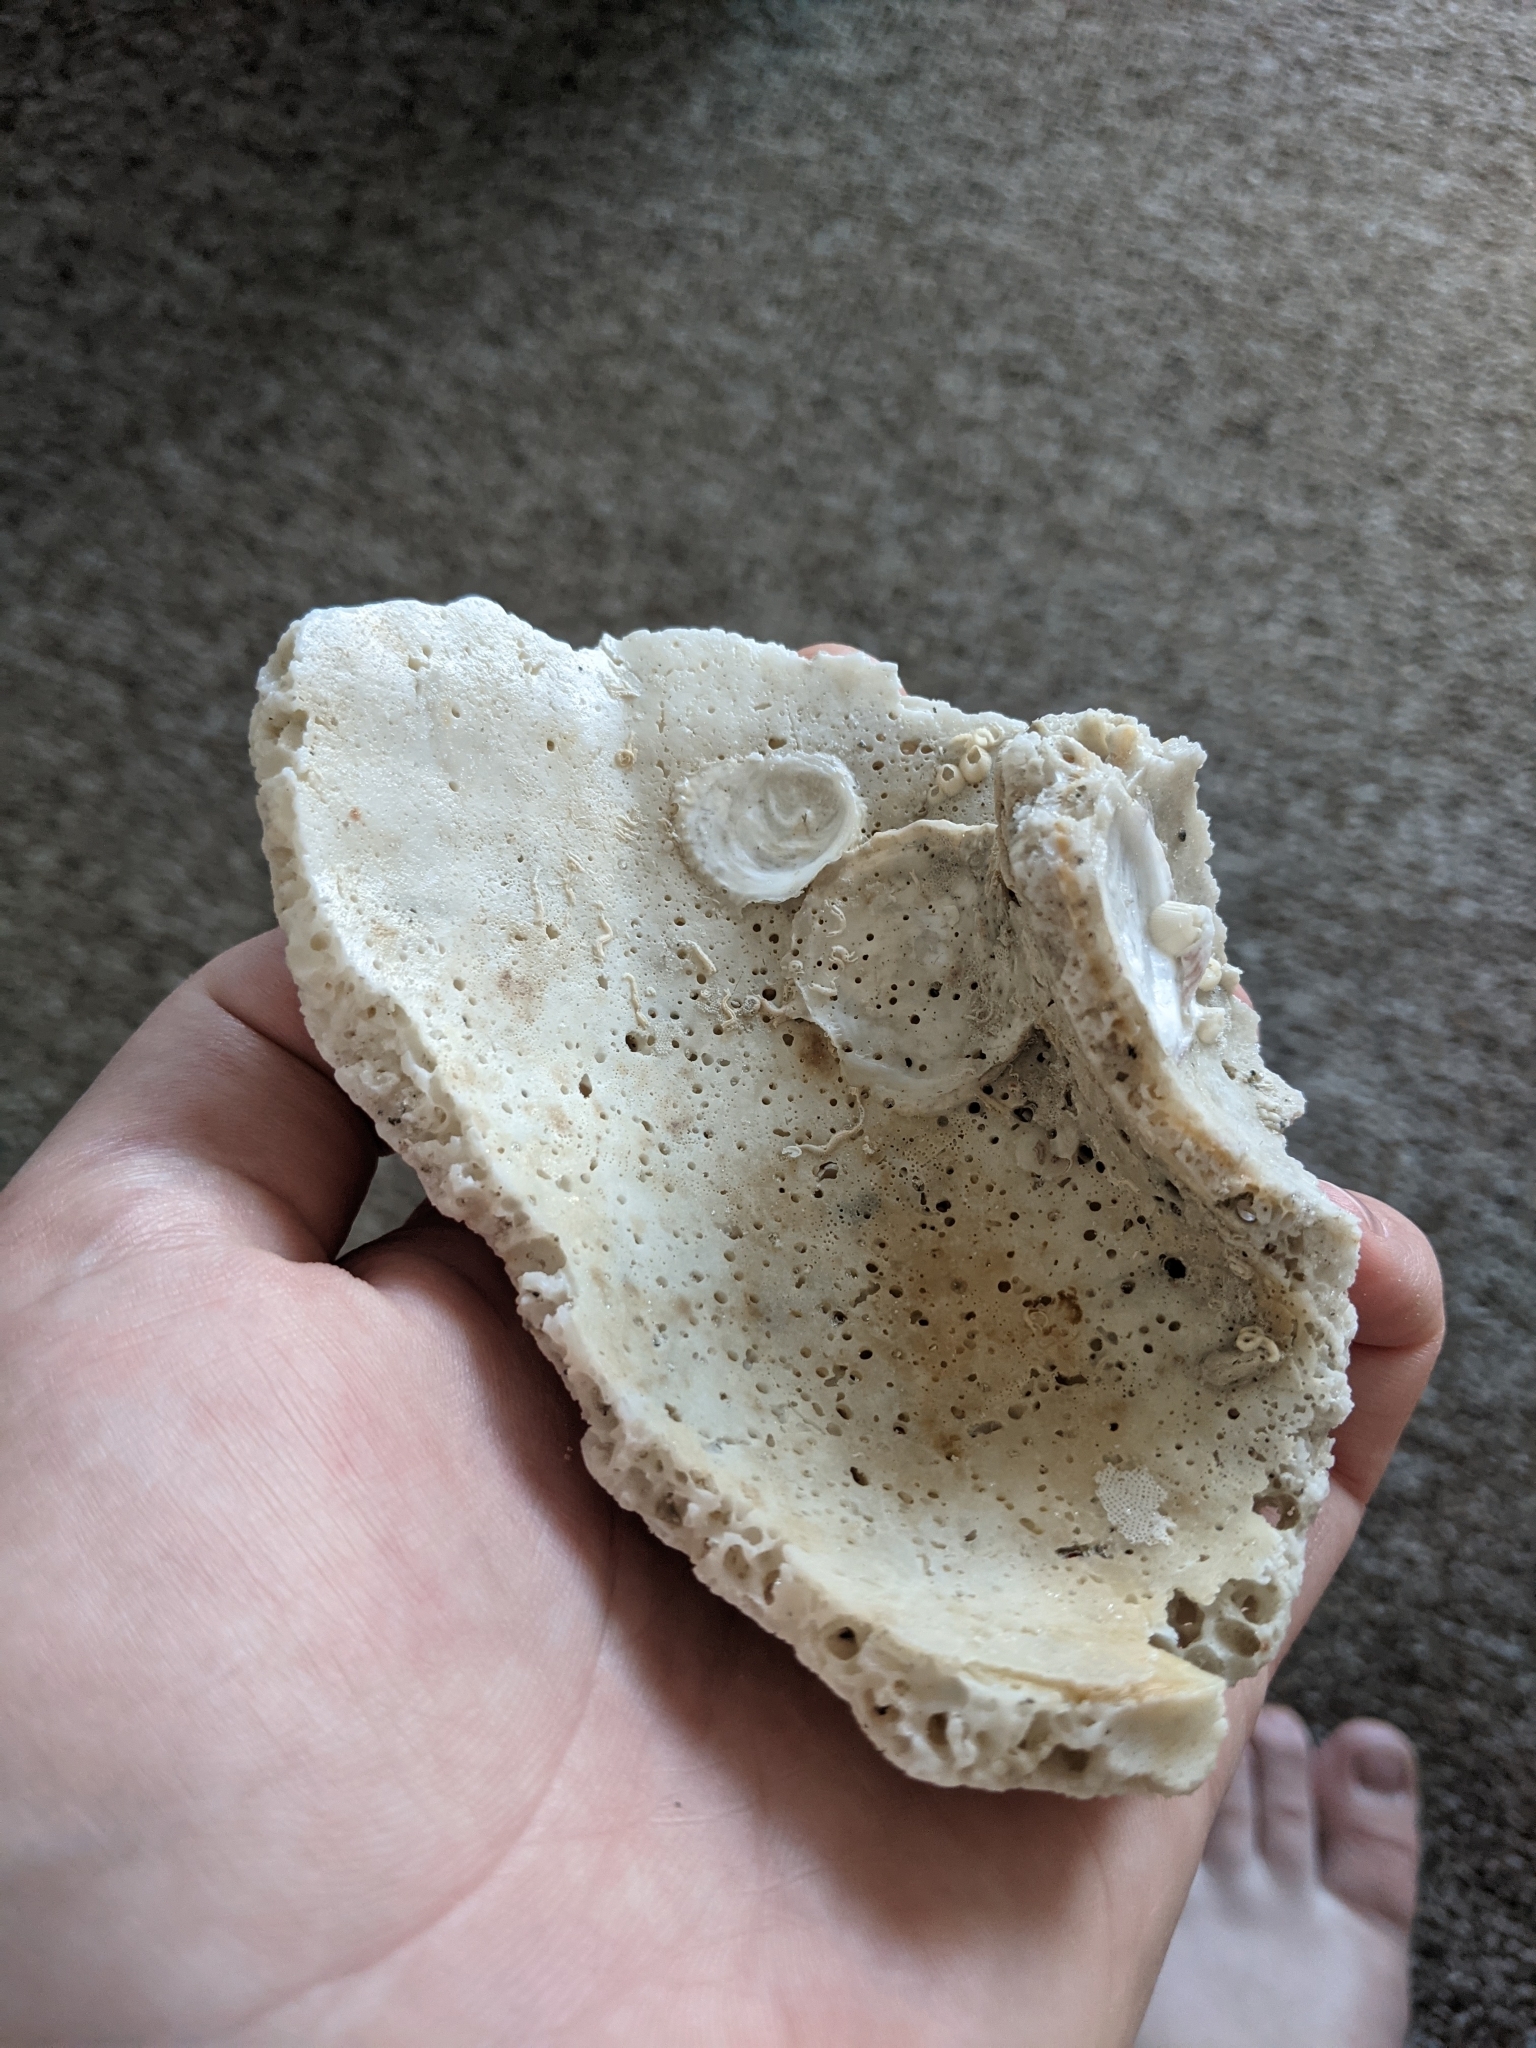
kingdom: Animalia
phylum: Mollusca
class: Gastropoda
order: Neogastropoda
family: Busyconidae
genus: Sinistrofulgur
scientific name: Sinistrofulgur sinistrum
